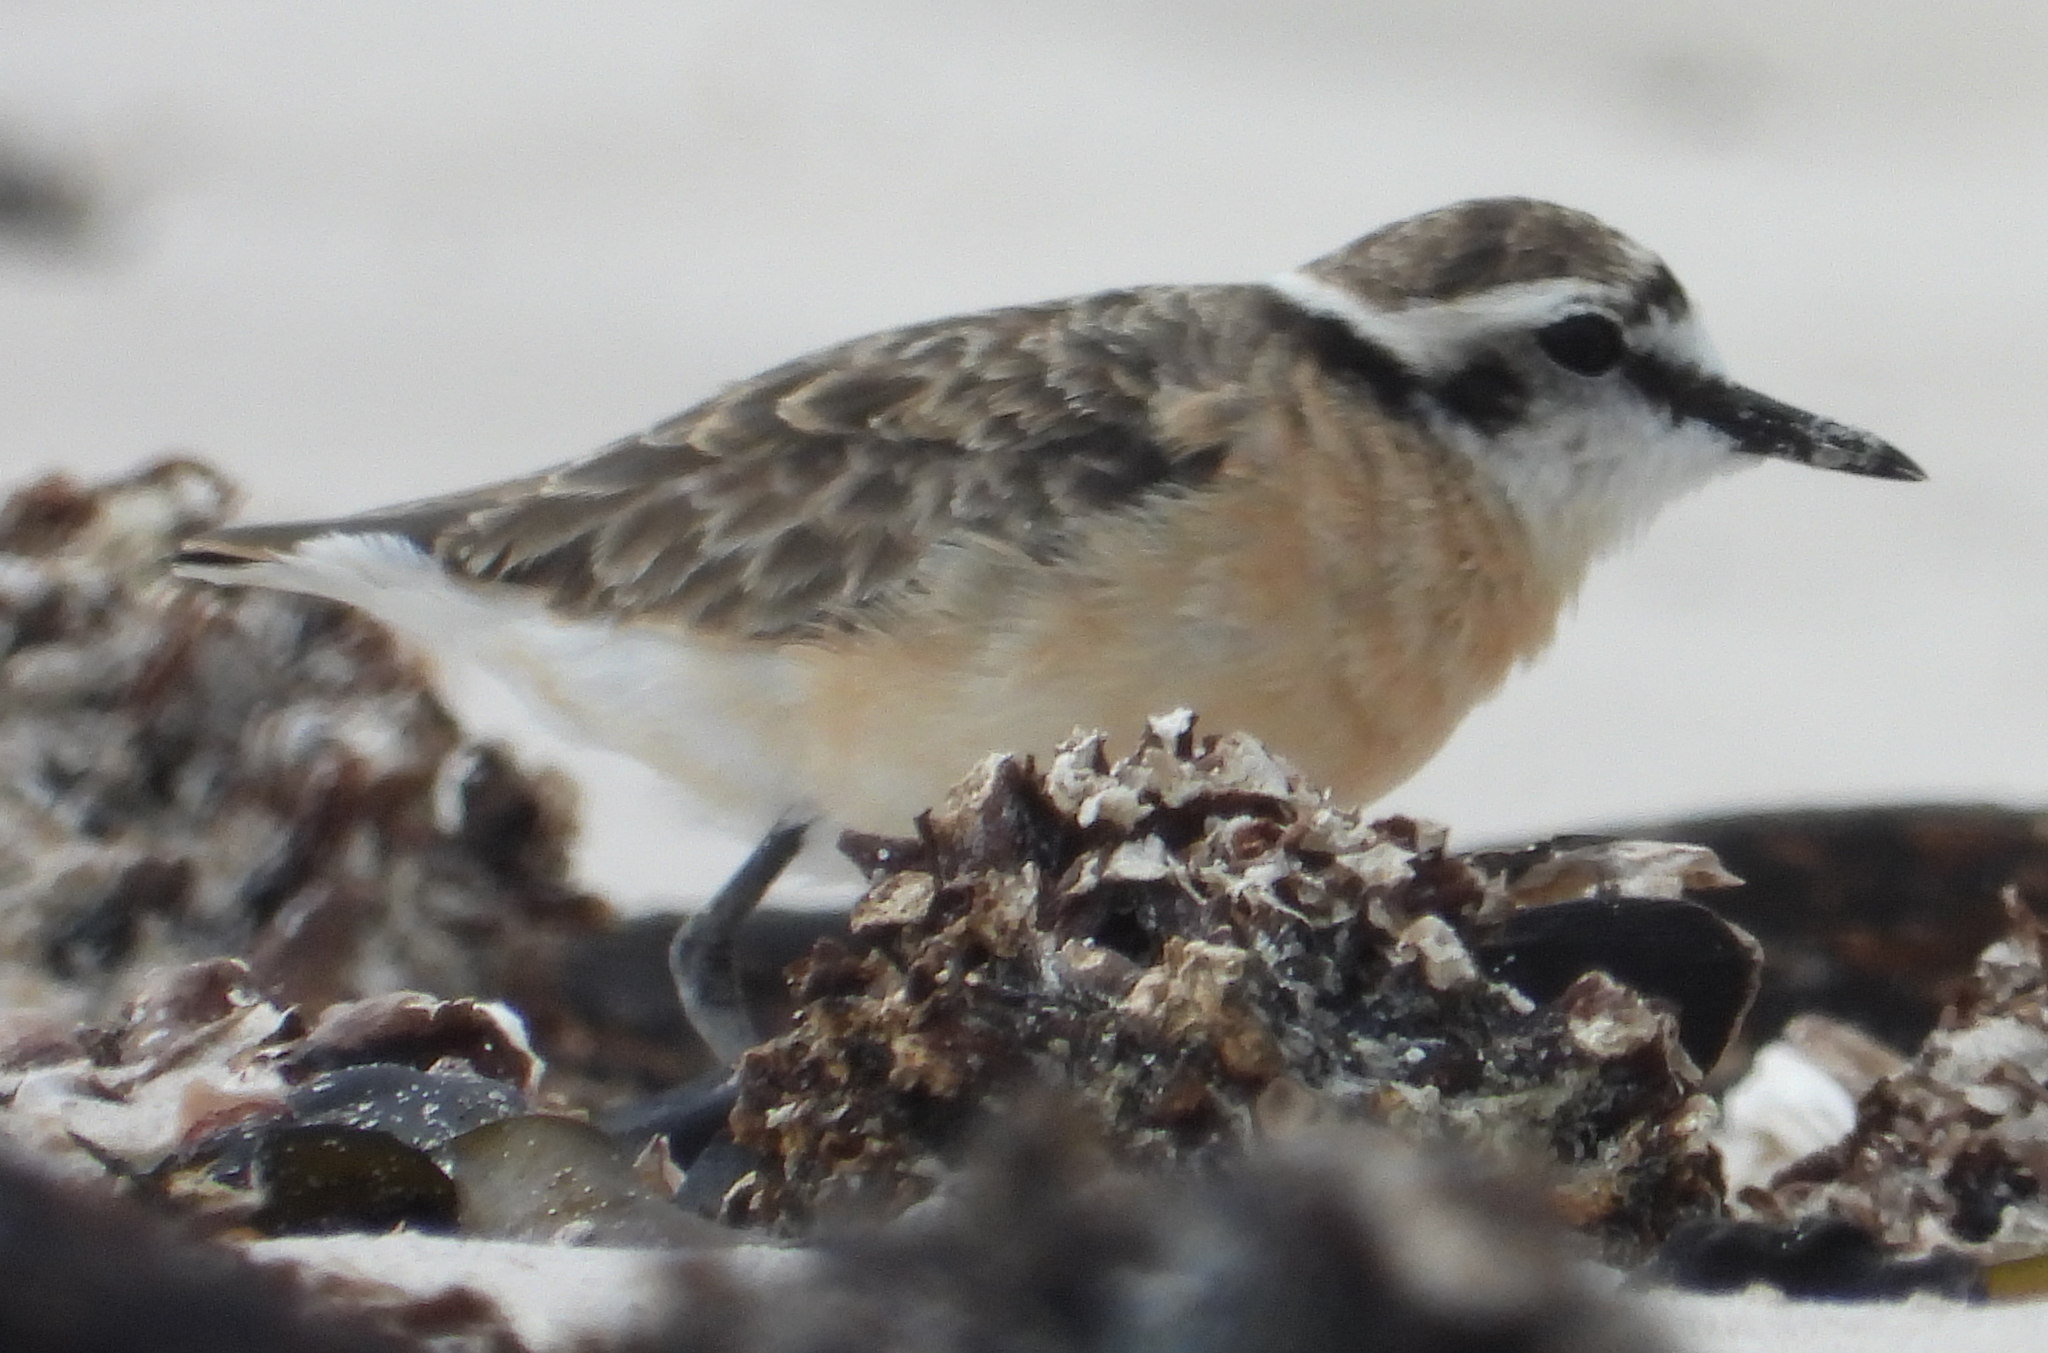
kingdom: Animalia
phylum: Chordata
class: Aves
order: Charadriiformes
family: Charadriidae
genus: Anarhynchus
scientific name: Anarhynchus
